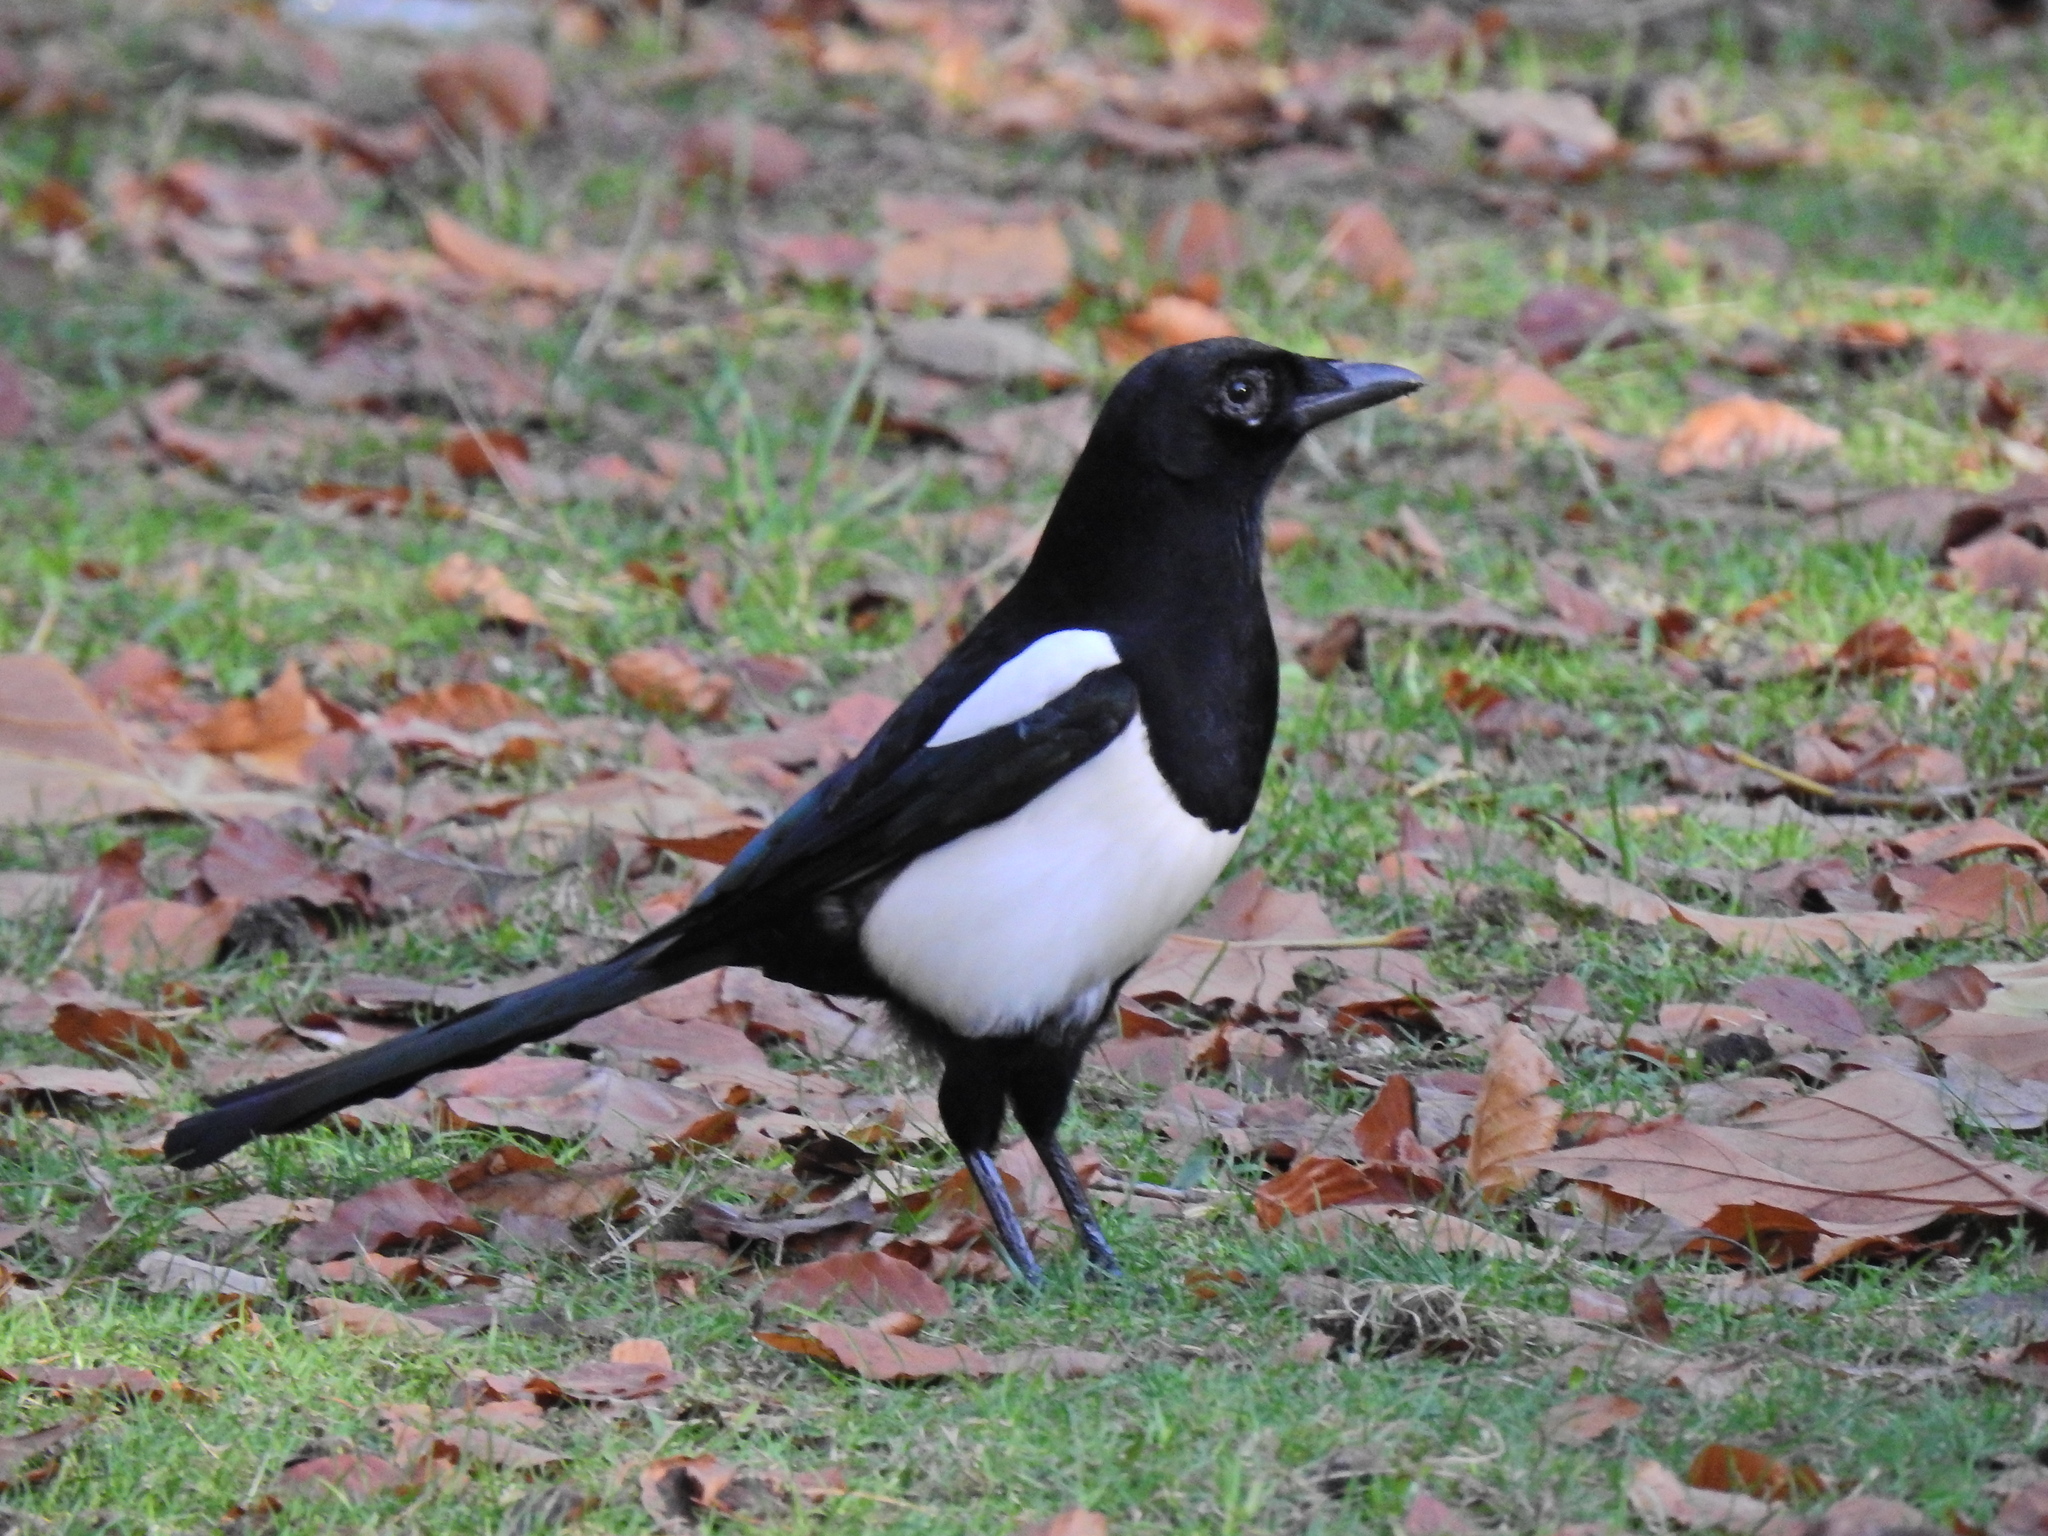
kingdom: Animalia
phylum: Chordata
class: Aves
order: Passeriformes
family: Corvidae
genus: Pica
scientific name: Pica pica
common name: Eurasian magpie
